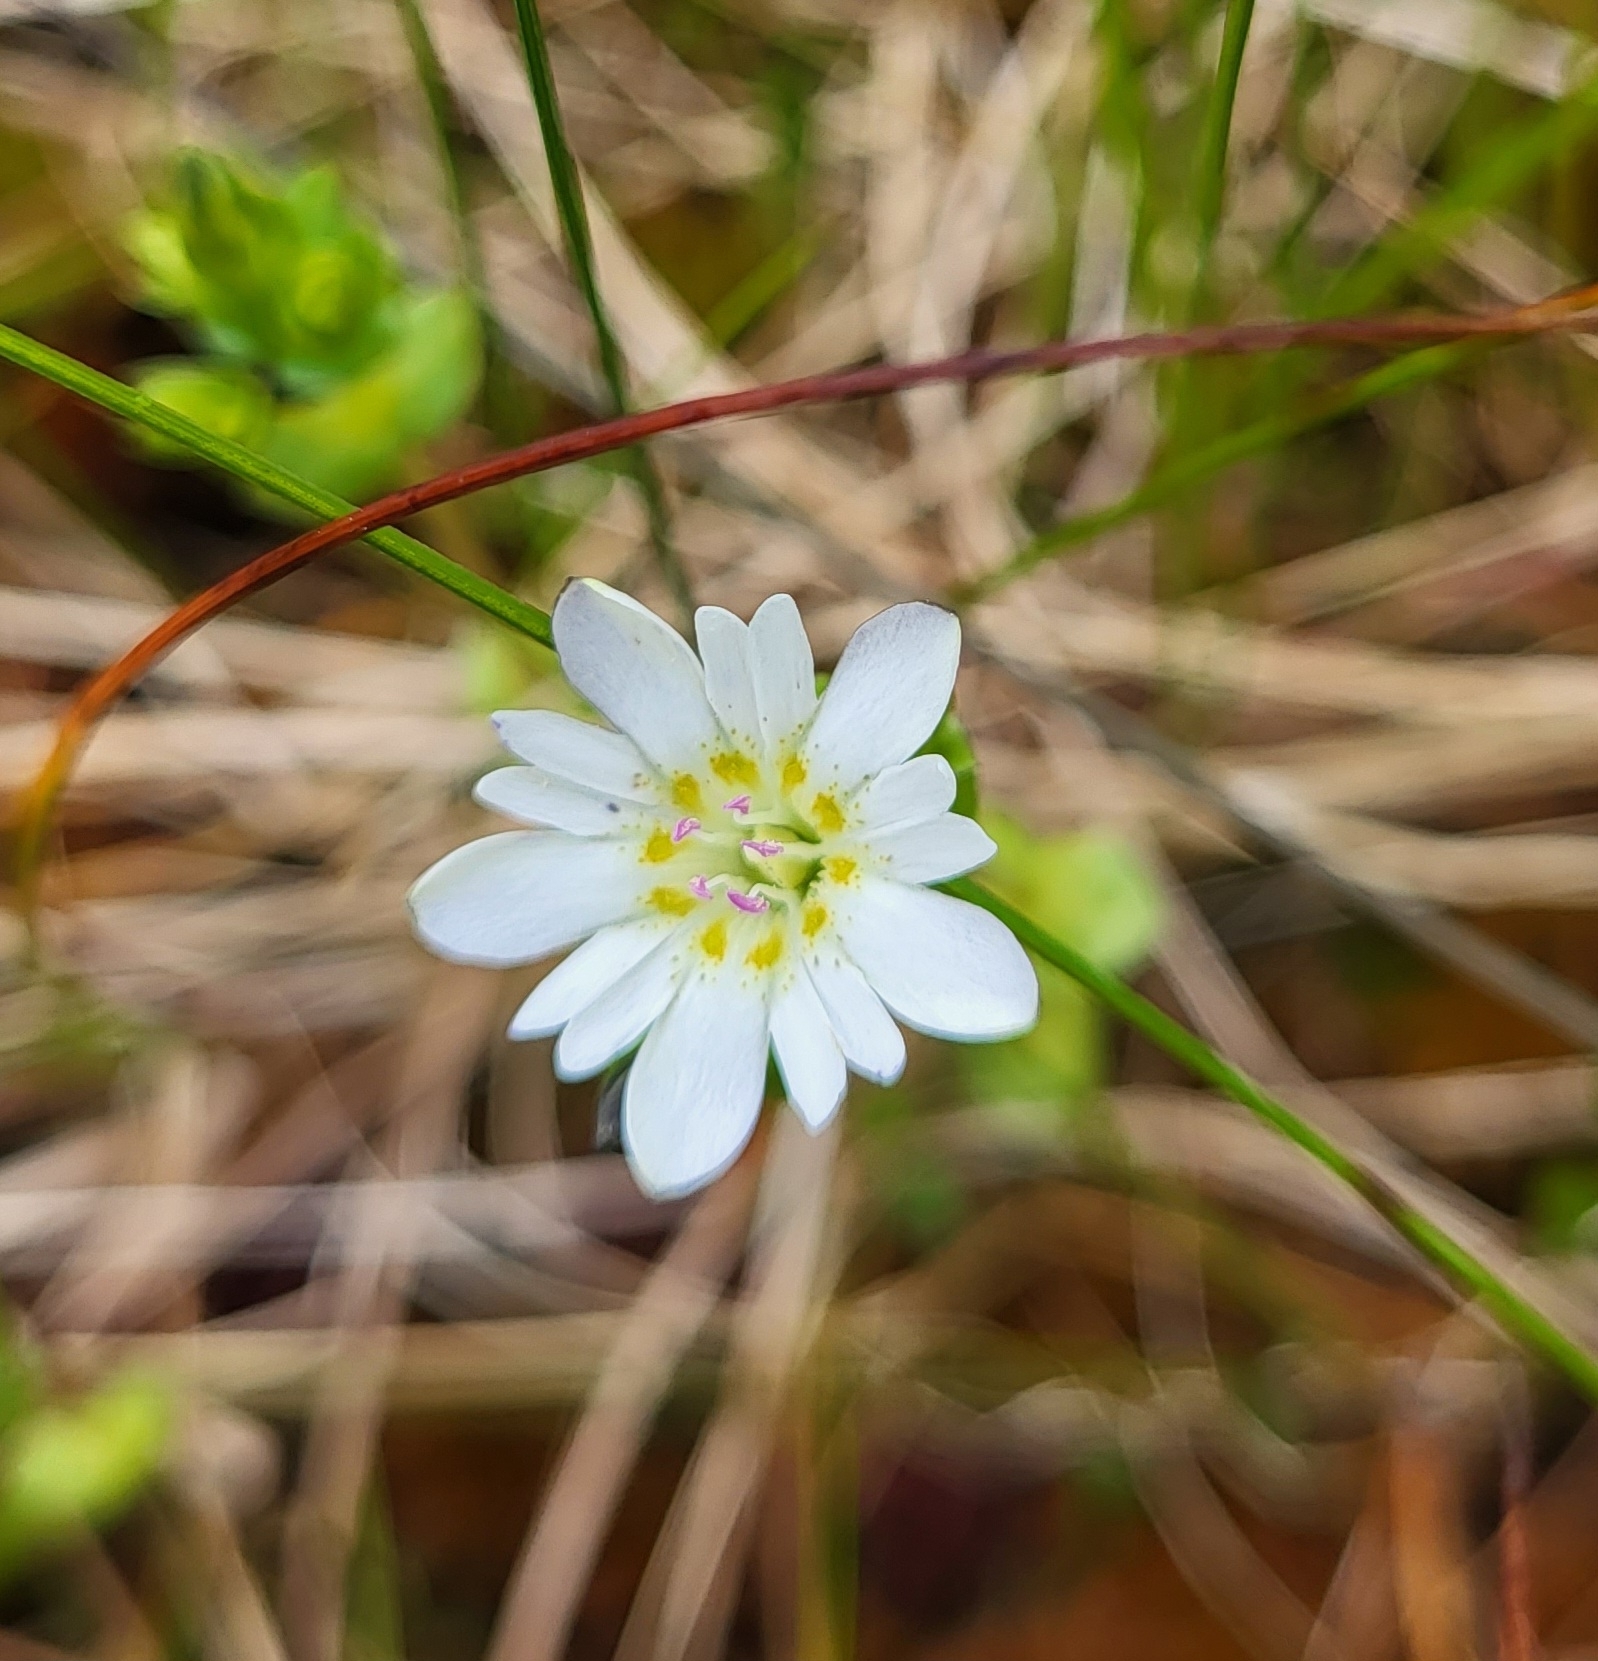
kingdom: Plantae
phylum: Tracheophyta
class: Magnoliopsida
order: Gentianales
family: Gentianaceae
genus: Gentiana
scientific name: Gentiana douglasiana
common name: Swamp gentian
